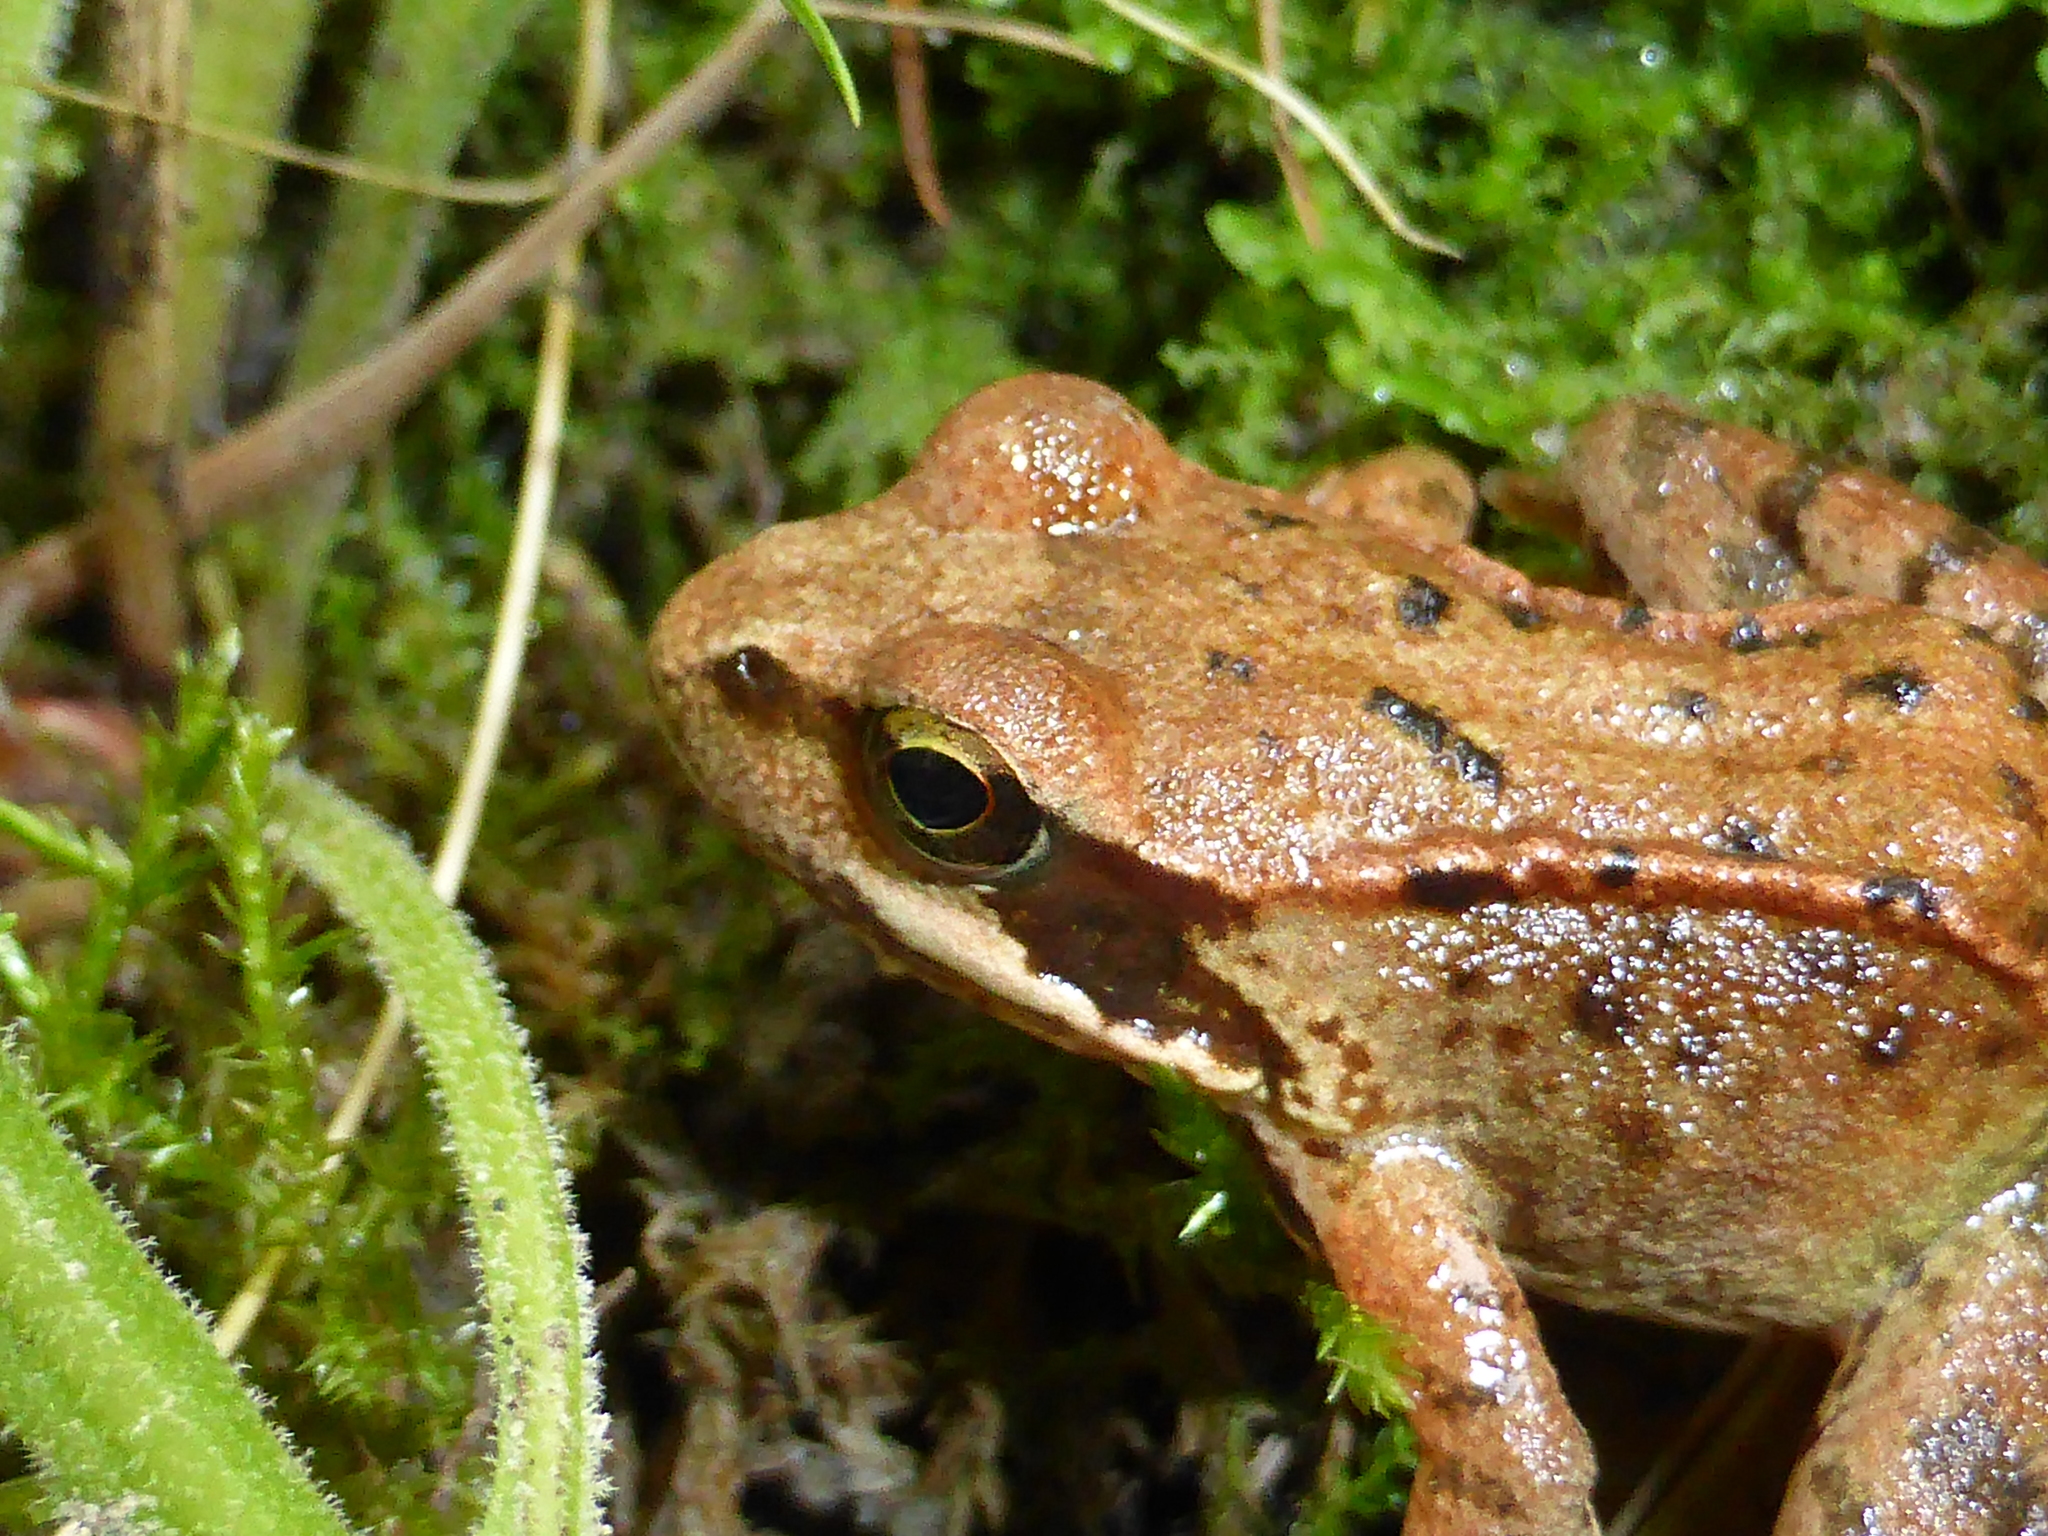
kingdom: Animalia
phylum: Chordata
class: Amphibia
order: Anura
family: Ranidae
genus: Rana
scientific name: Rana temporaria
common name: Common frog
